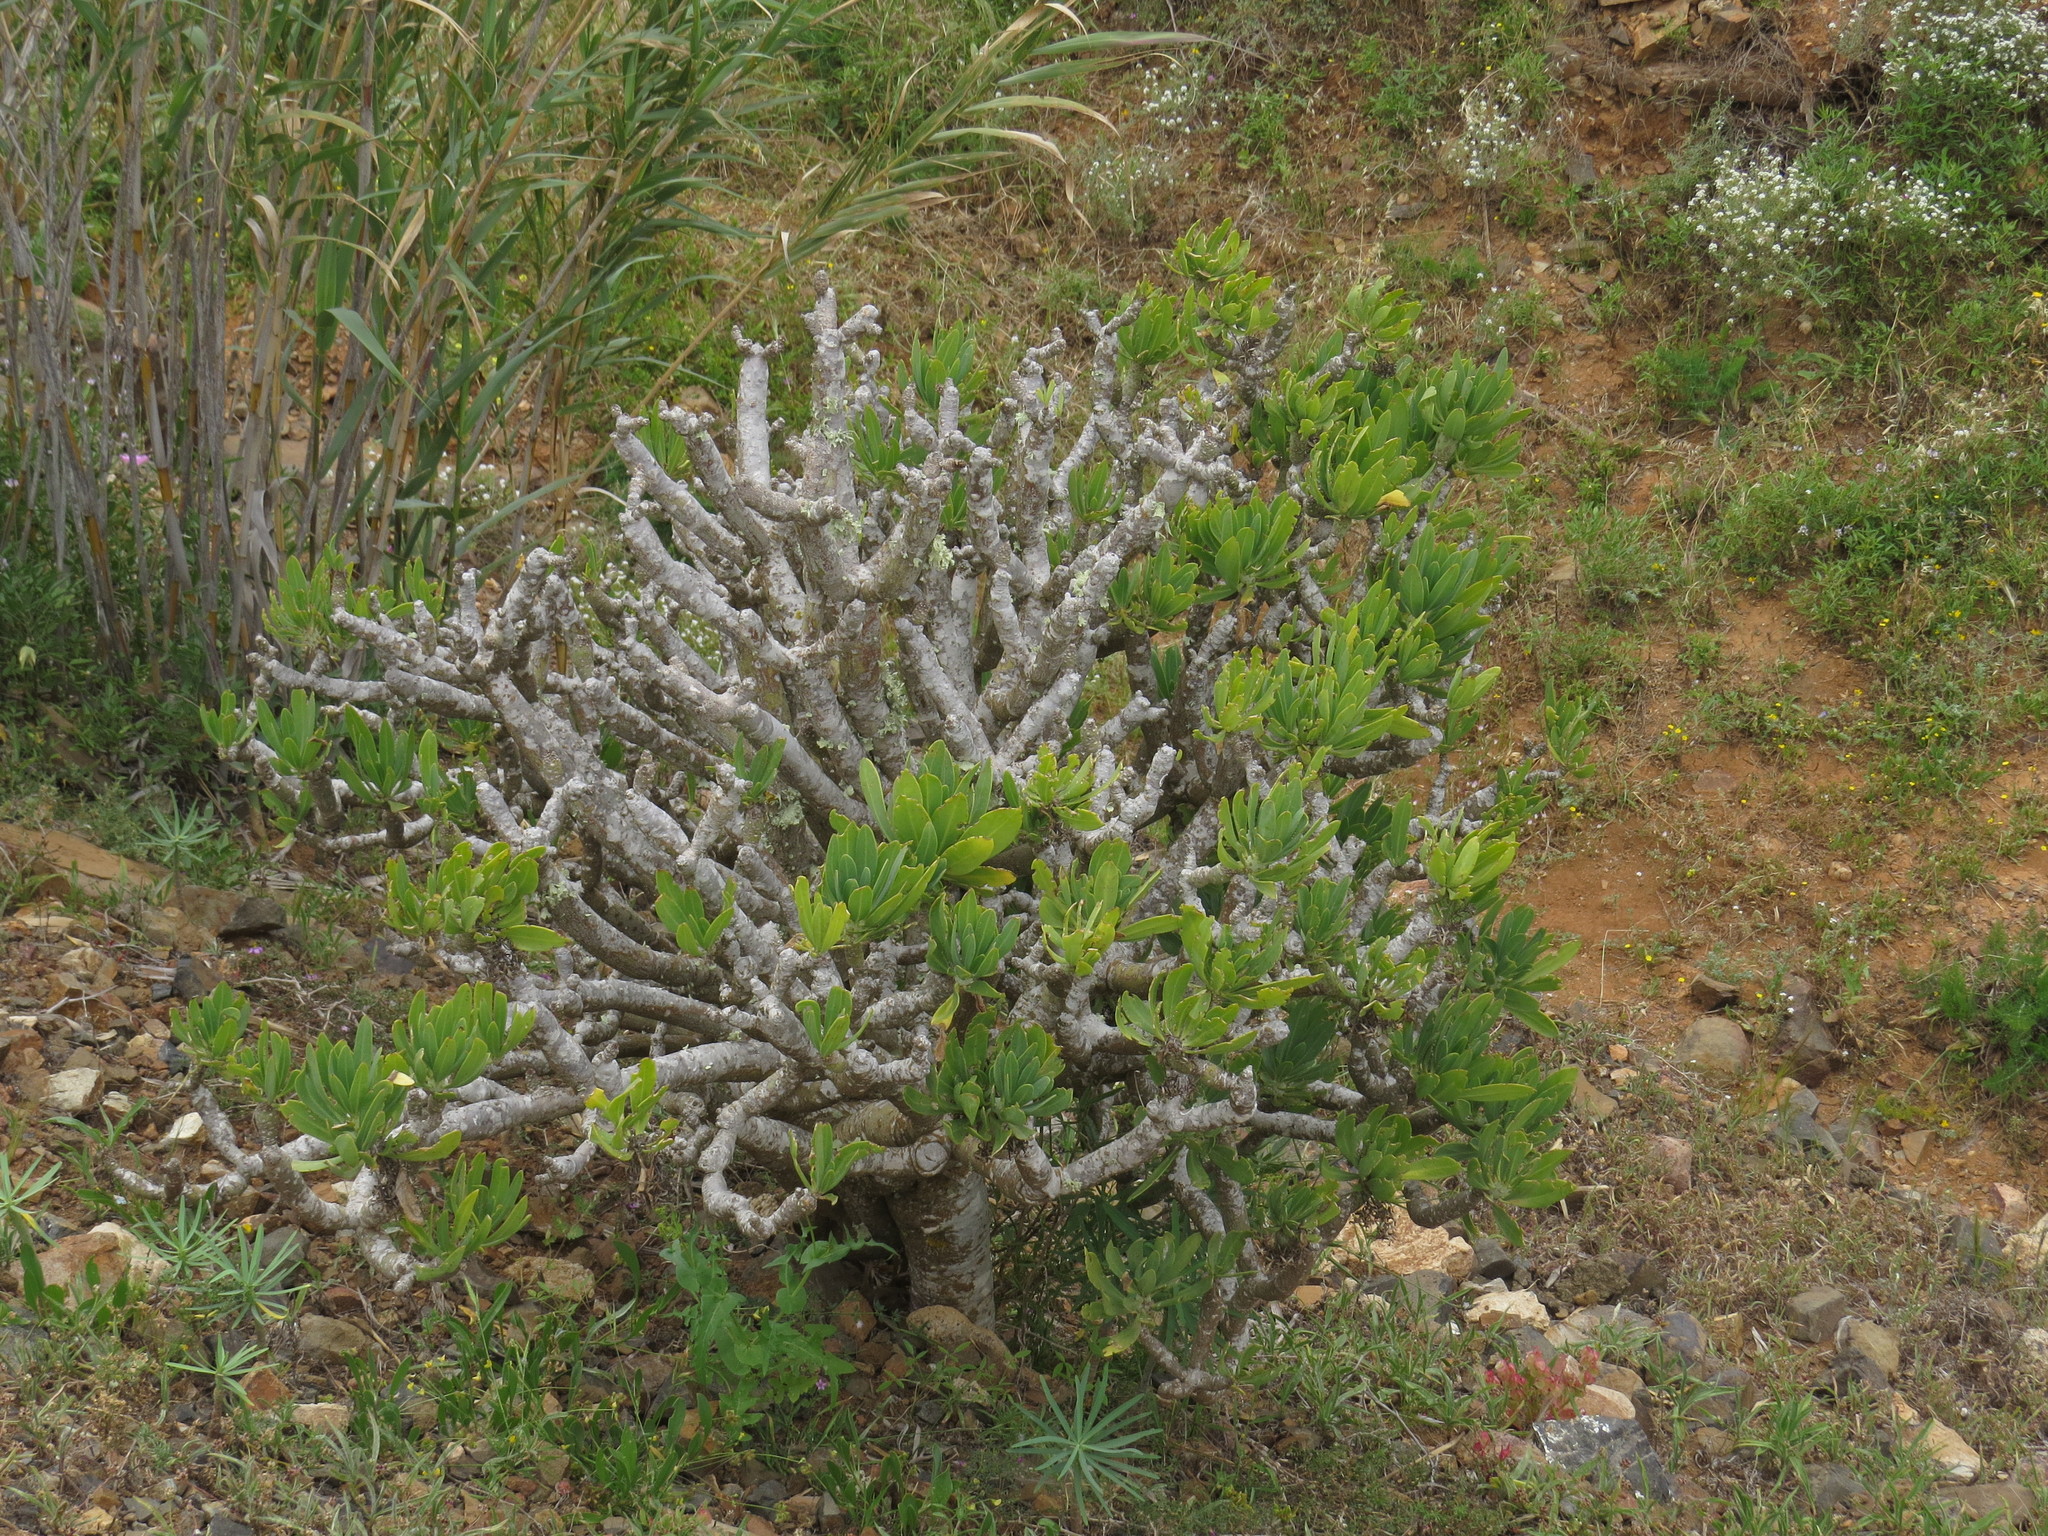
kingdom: Plantae
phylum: Tracheophyta
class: Magnoliopsida
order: Asterales
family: Asteraceae
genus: Kleinia
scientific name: Kleinia neriifolia
